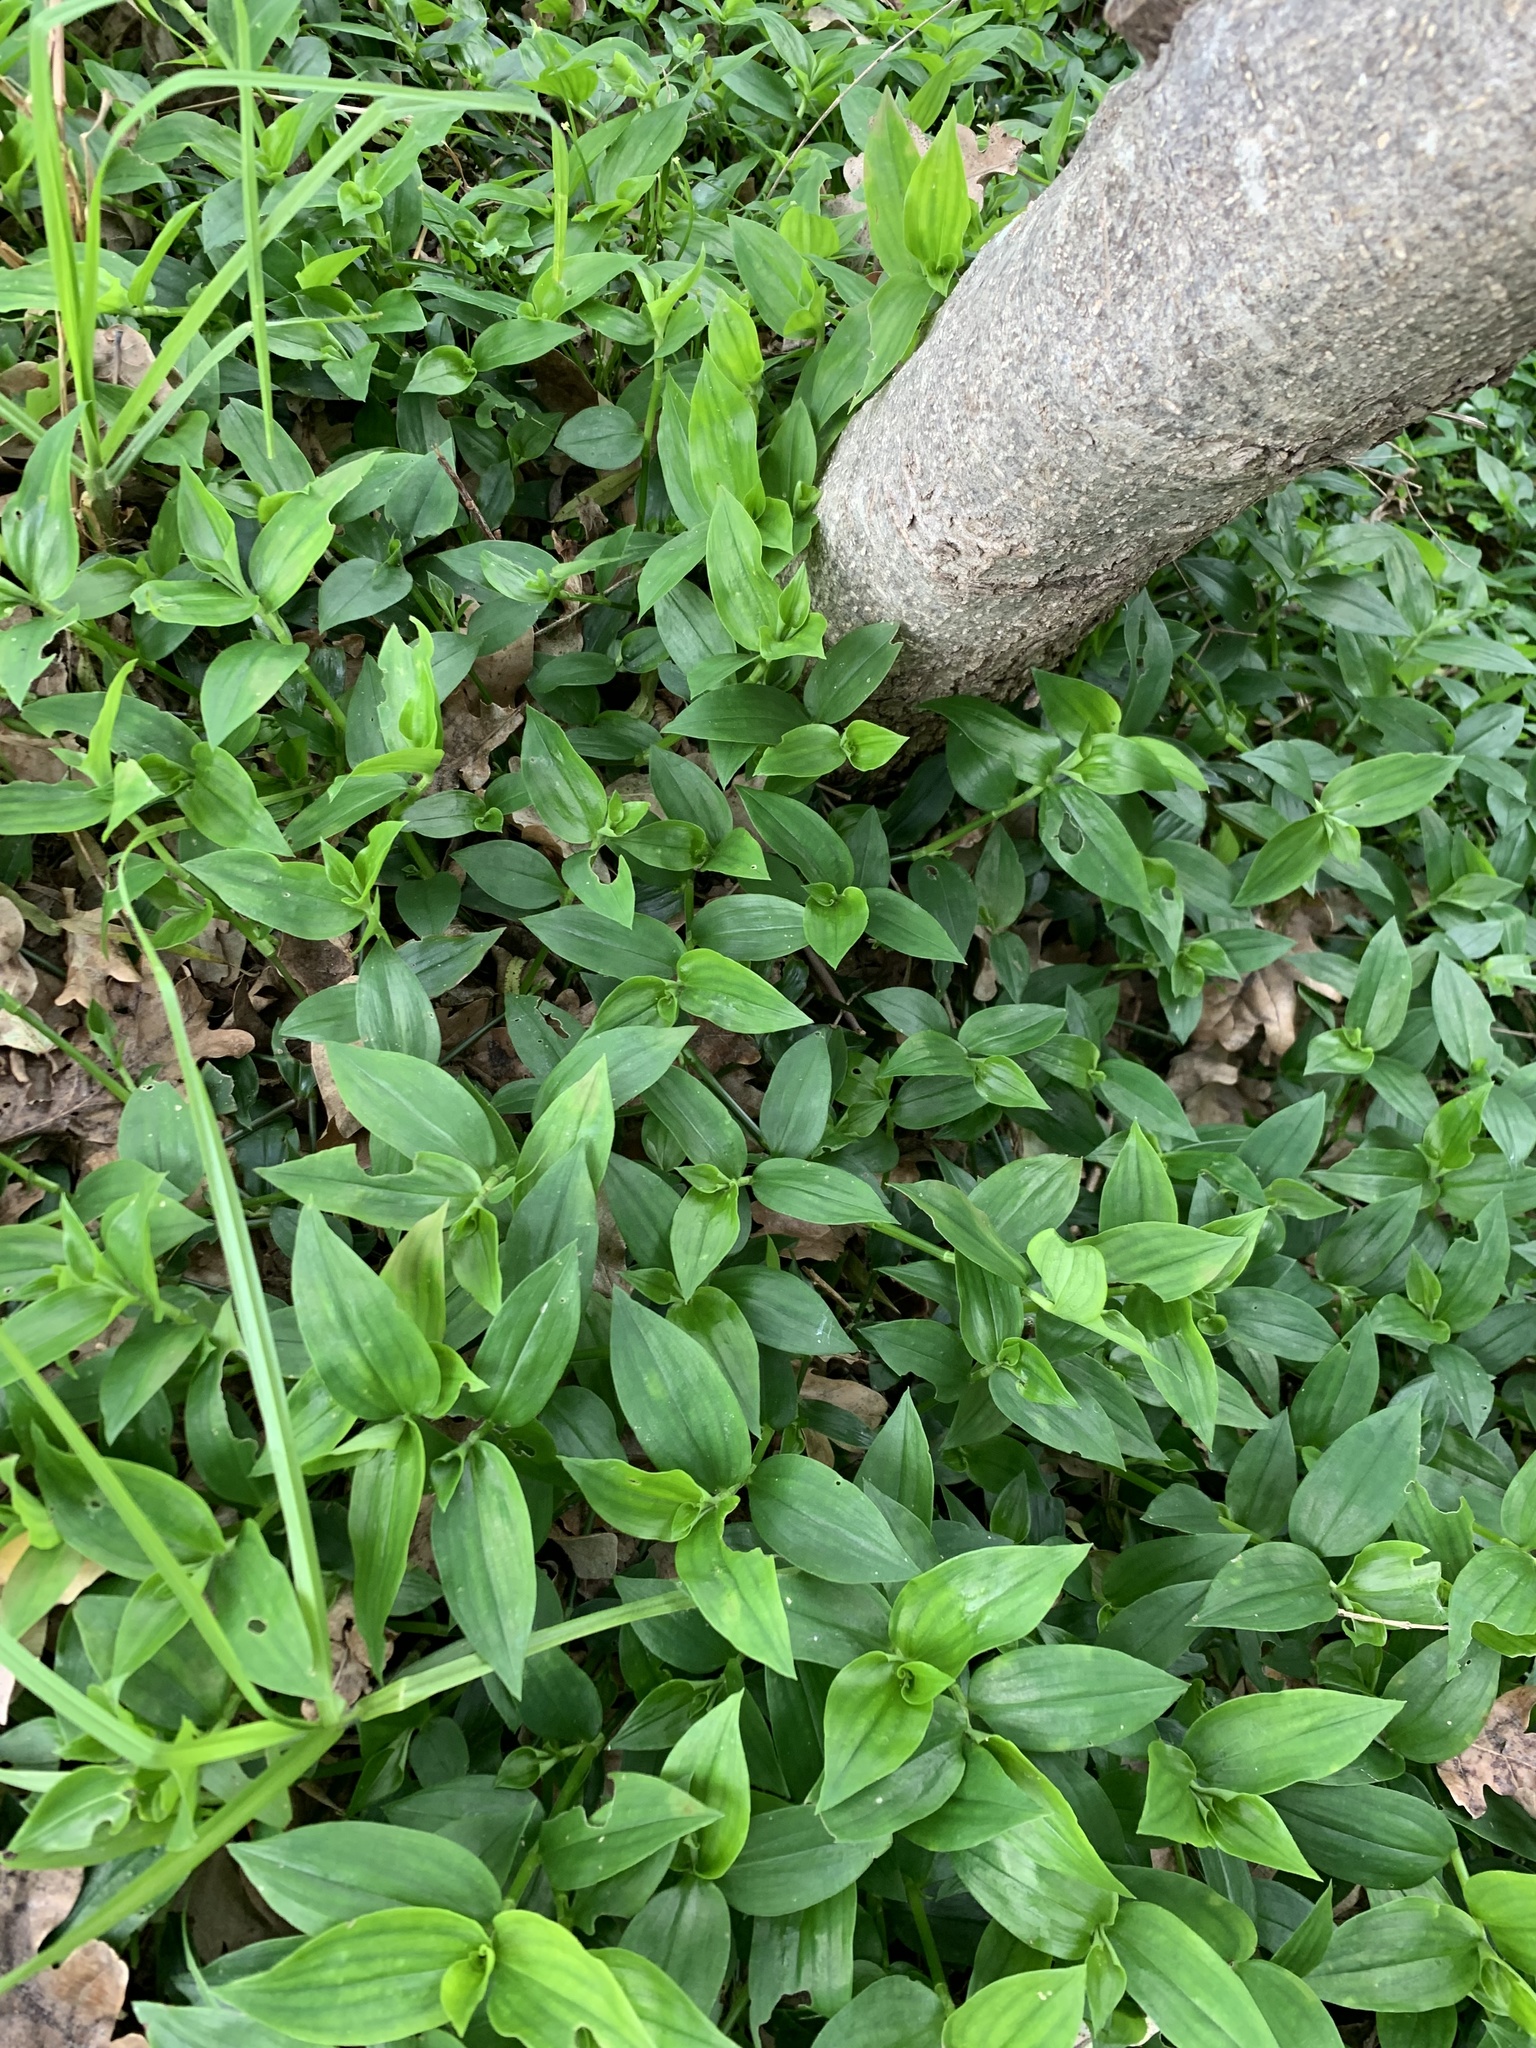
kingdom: Plantae
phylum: Tracheophyta
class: Liliopsida
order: Commelinales
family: Commelinaceae
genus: Tradescantia
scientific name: Tradescantia fluminensis
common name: Wandering-jew
